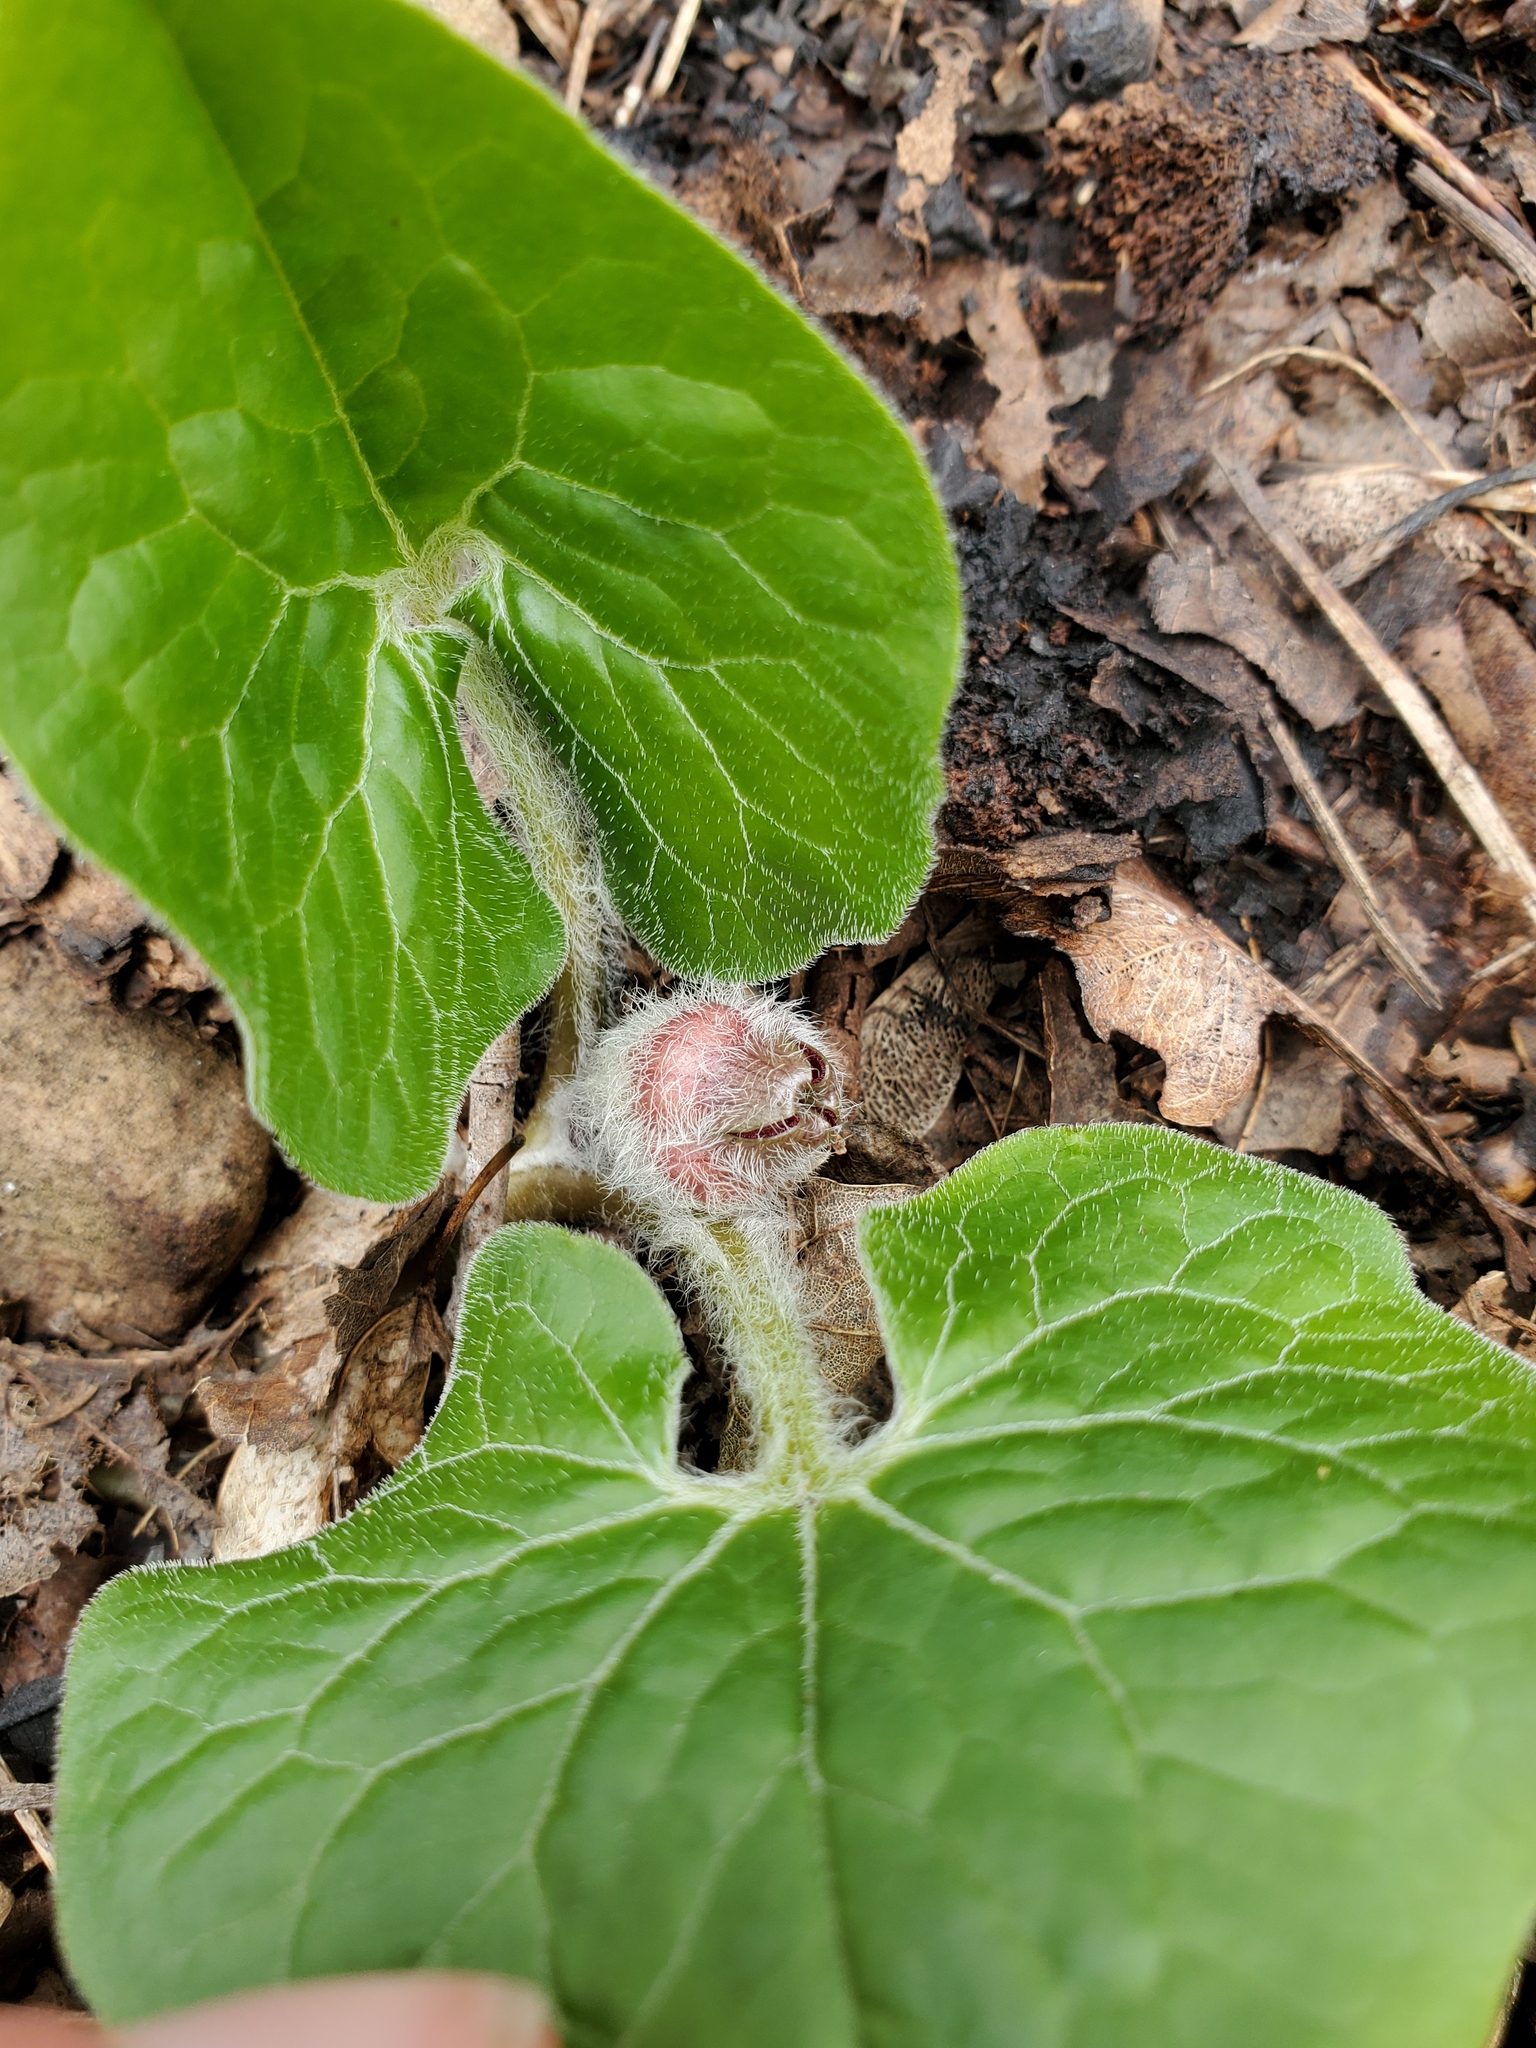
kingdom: Plantae
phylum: Tracheophyta
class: Magnoliopsida
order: Piperales
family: Aristolochiaceae
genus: Asarum
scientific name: Asarum canadense
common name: Wild ginger
